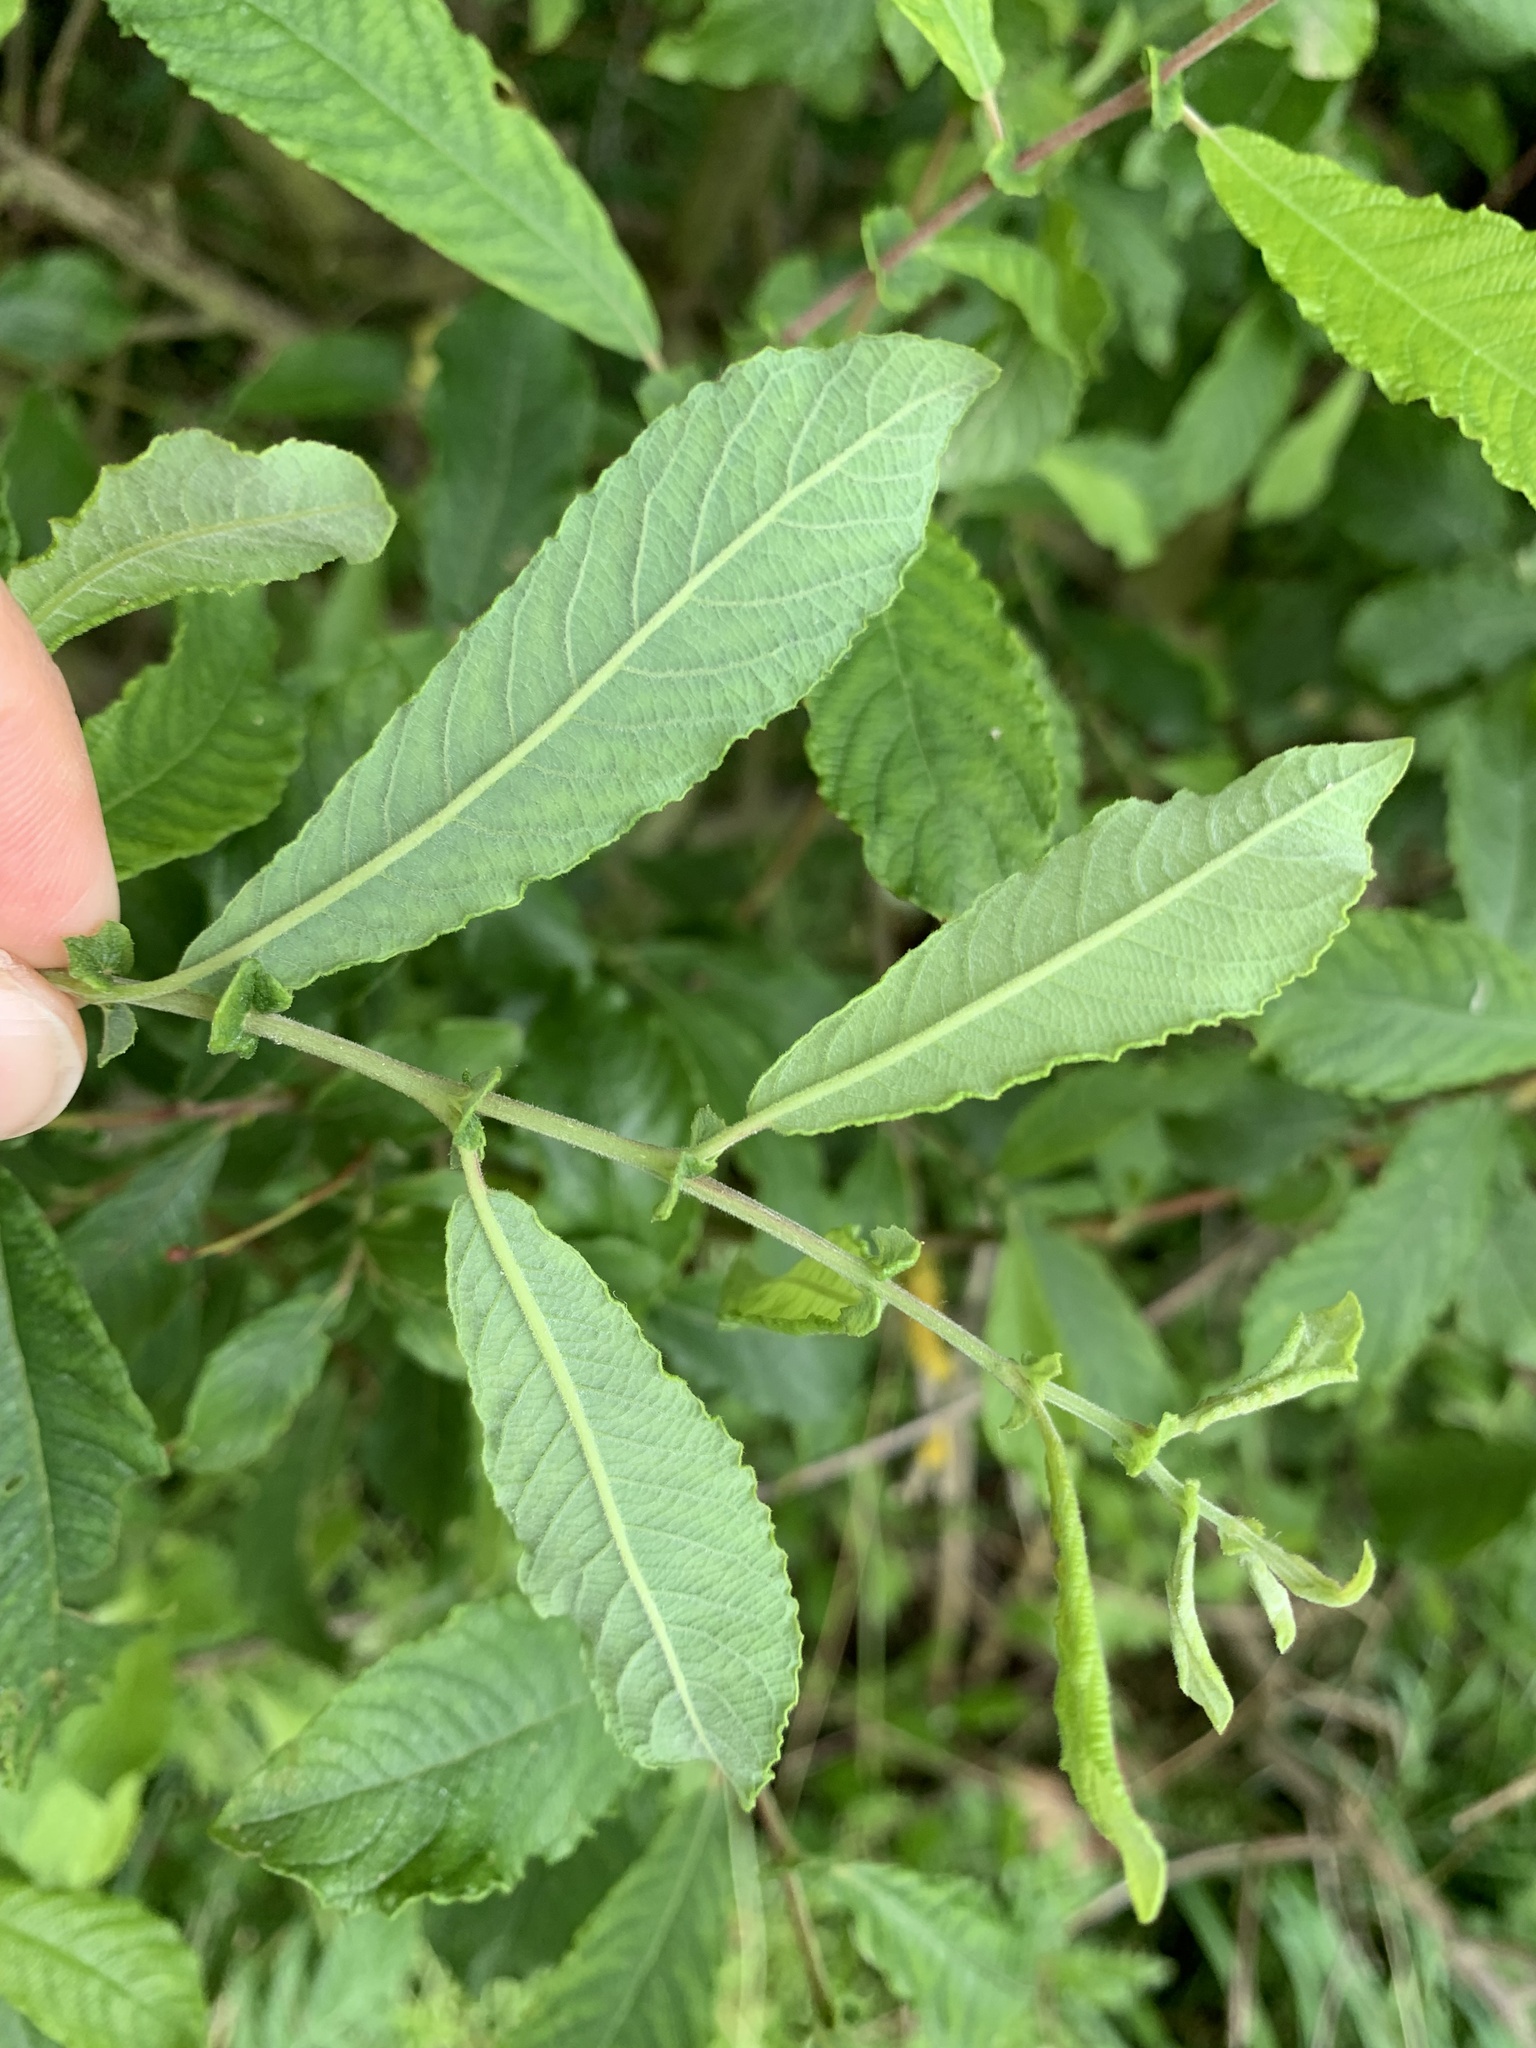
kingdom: Plantae
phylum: Tracheophyta
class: Magnoliopsida
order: Malpighiales
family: Salicaceae
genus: Salix
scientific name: Salix aurita
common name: Eared willow
